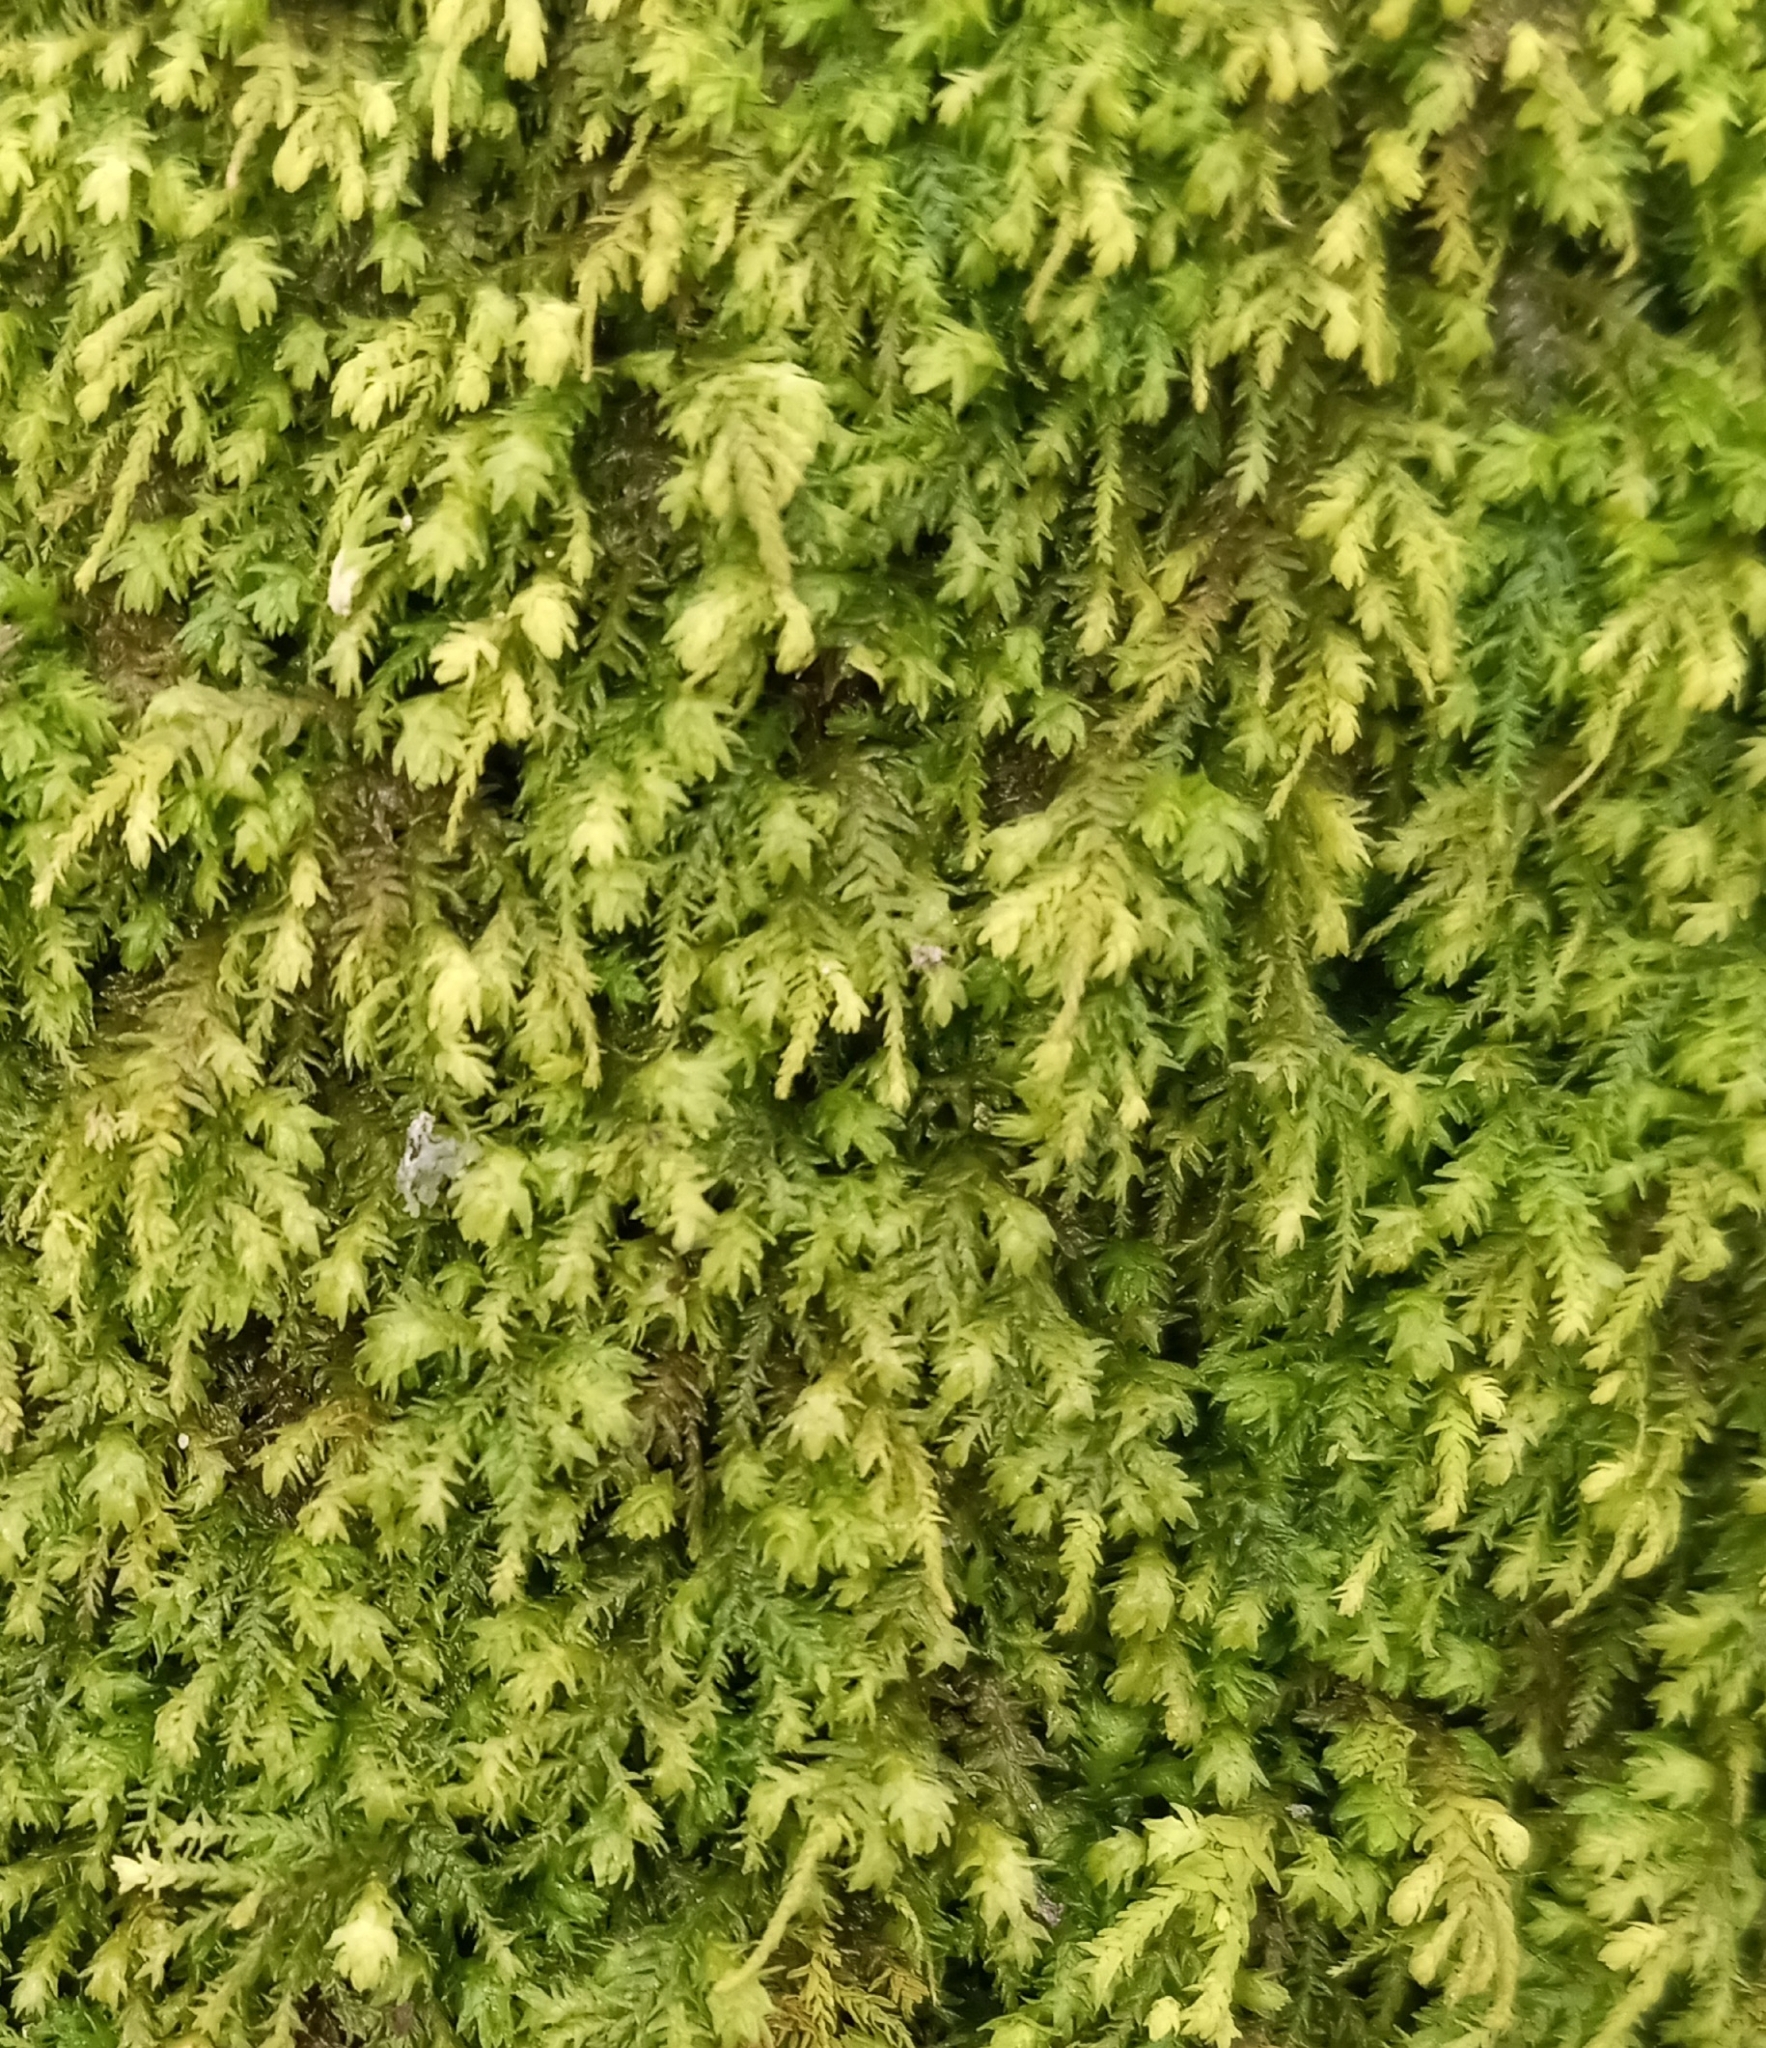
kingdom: Plantae
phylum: Bryophyta
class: Bryopsida
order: Hypnales
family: Neckeraceae
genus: Pseudanomodon
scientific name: Pseudanomodon attenuatus
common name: Tree-skirt moss
